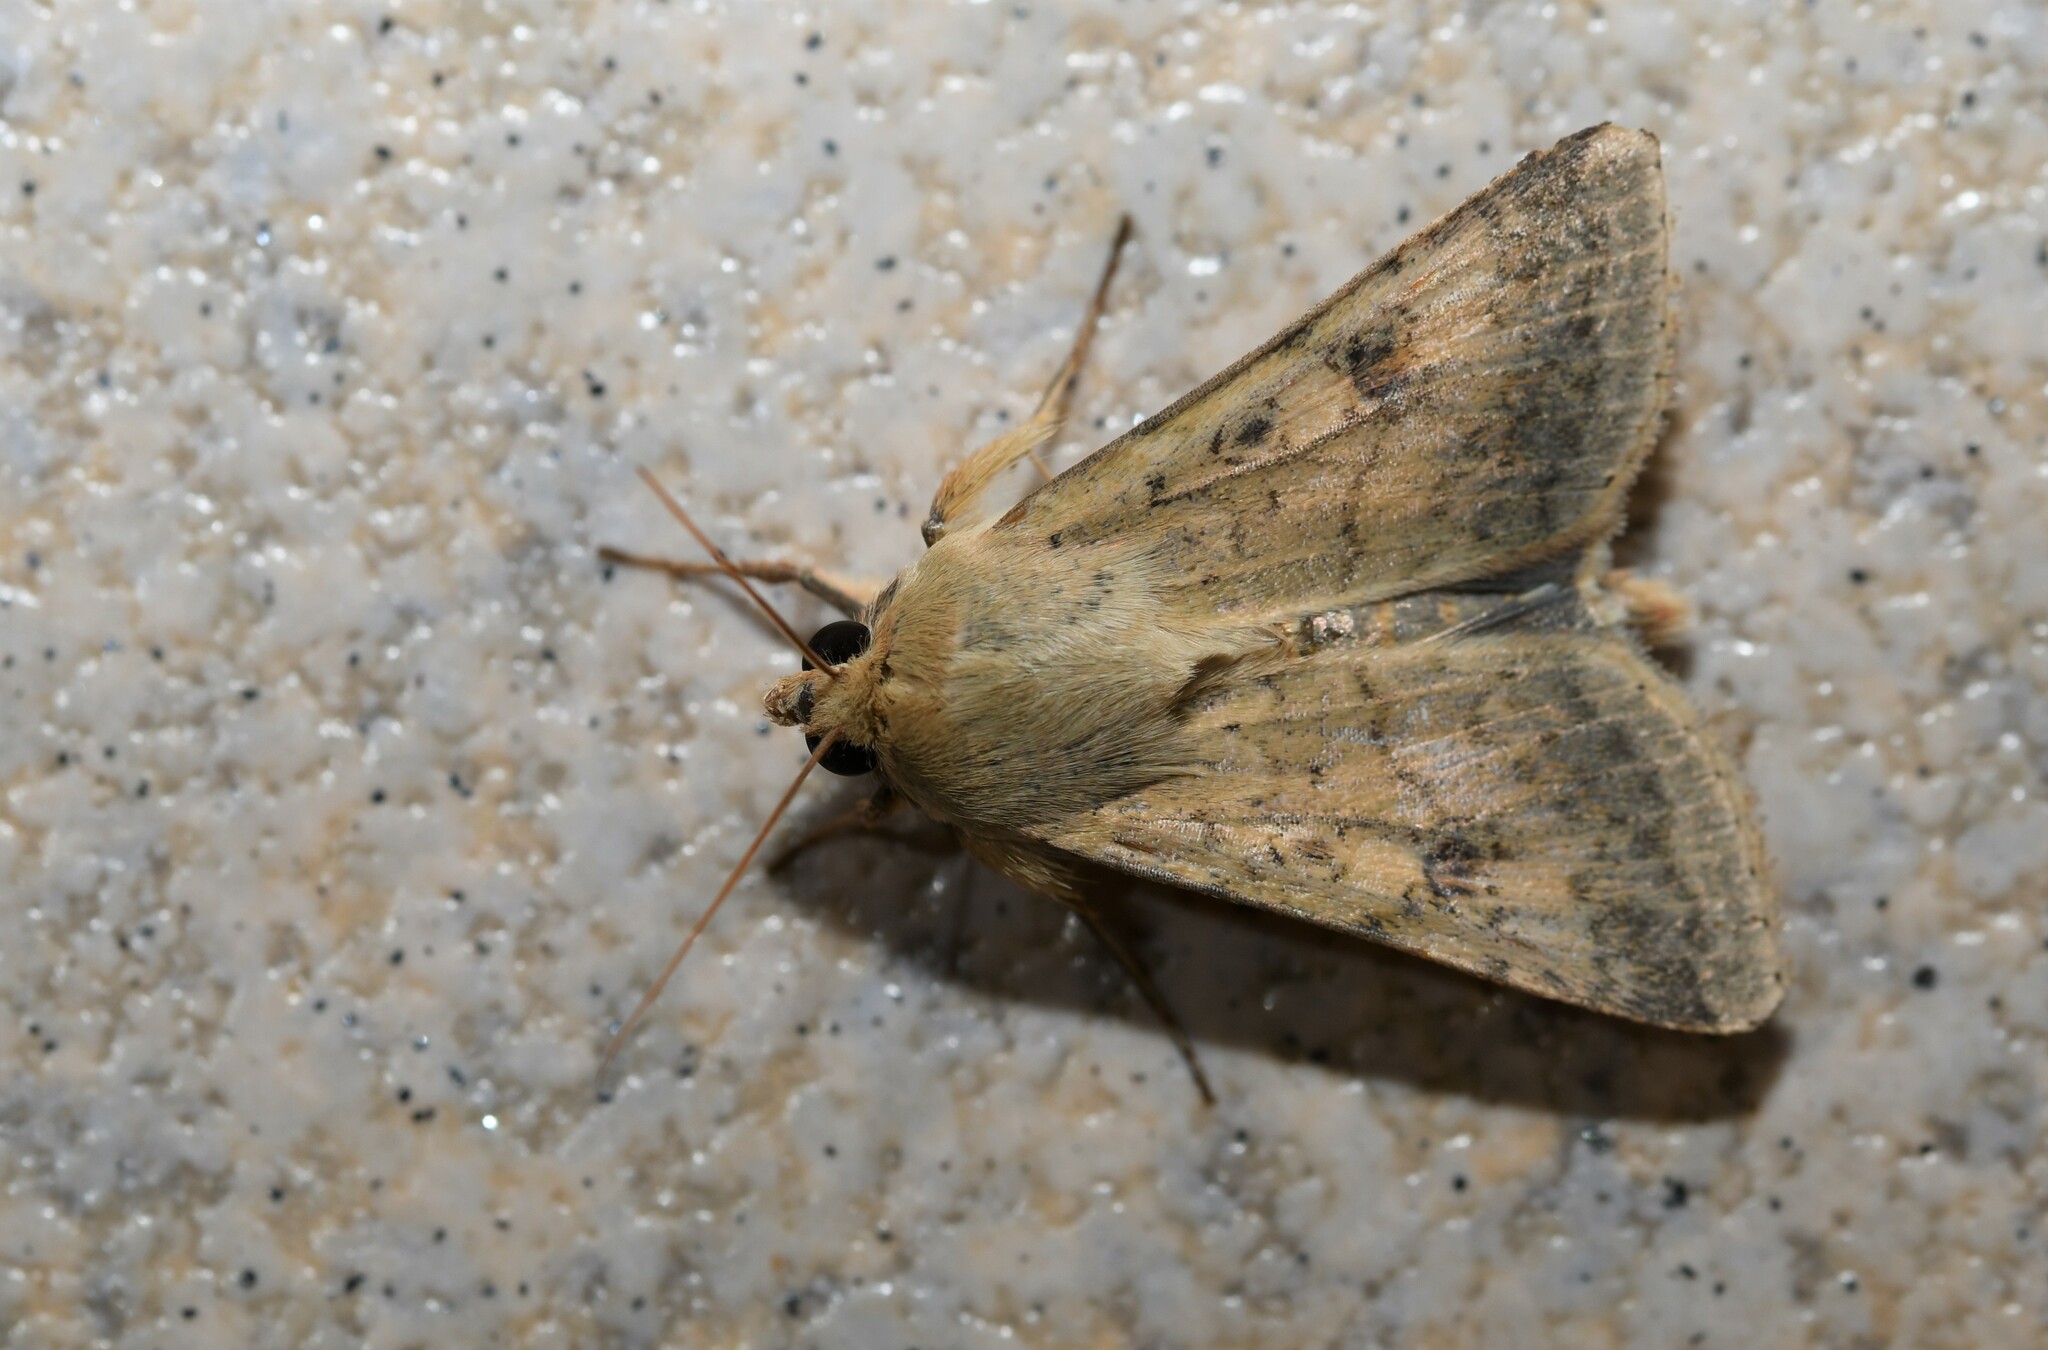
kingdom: Animalia
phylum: Arthropoda
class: Insecta
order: Lepidoptera
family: Noctuidae
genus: Helicoverpa
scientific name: Helicoverpa armigera
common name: Cotton bollworm
